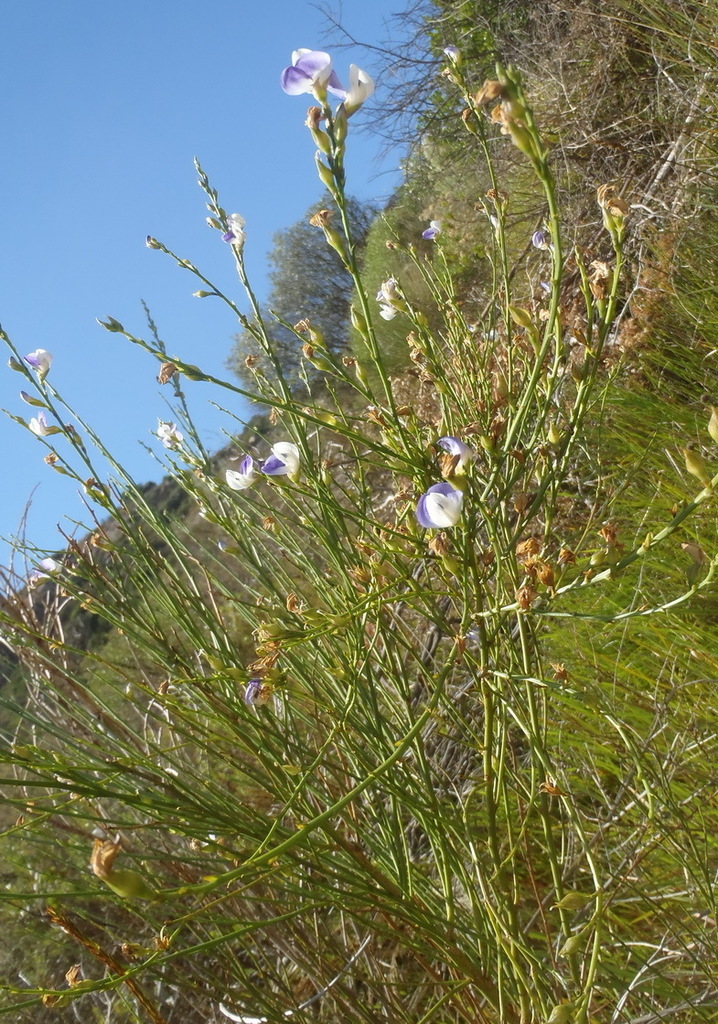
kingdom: Plantae
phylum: Tracheophyta
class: Magnoliopsida
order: Fabales
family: Fabaceae
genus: Psoralea
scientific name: Psoralea aphylla
